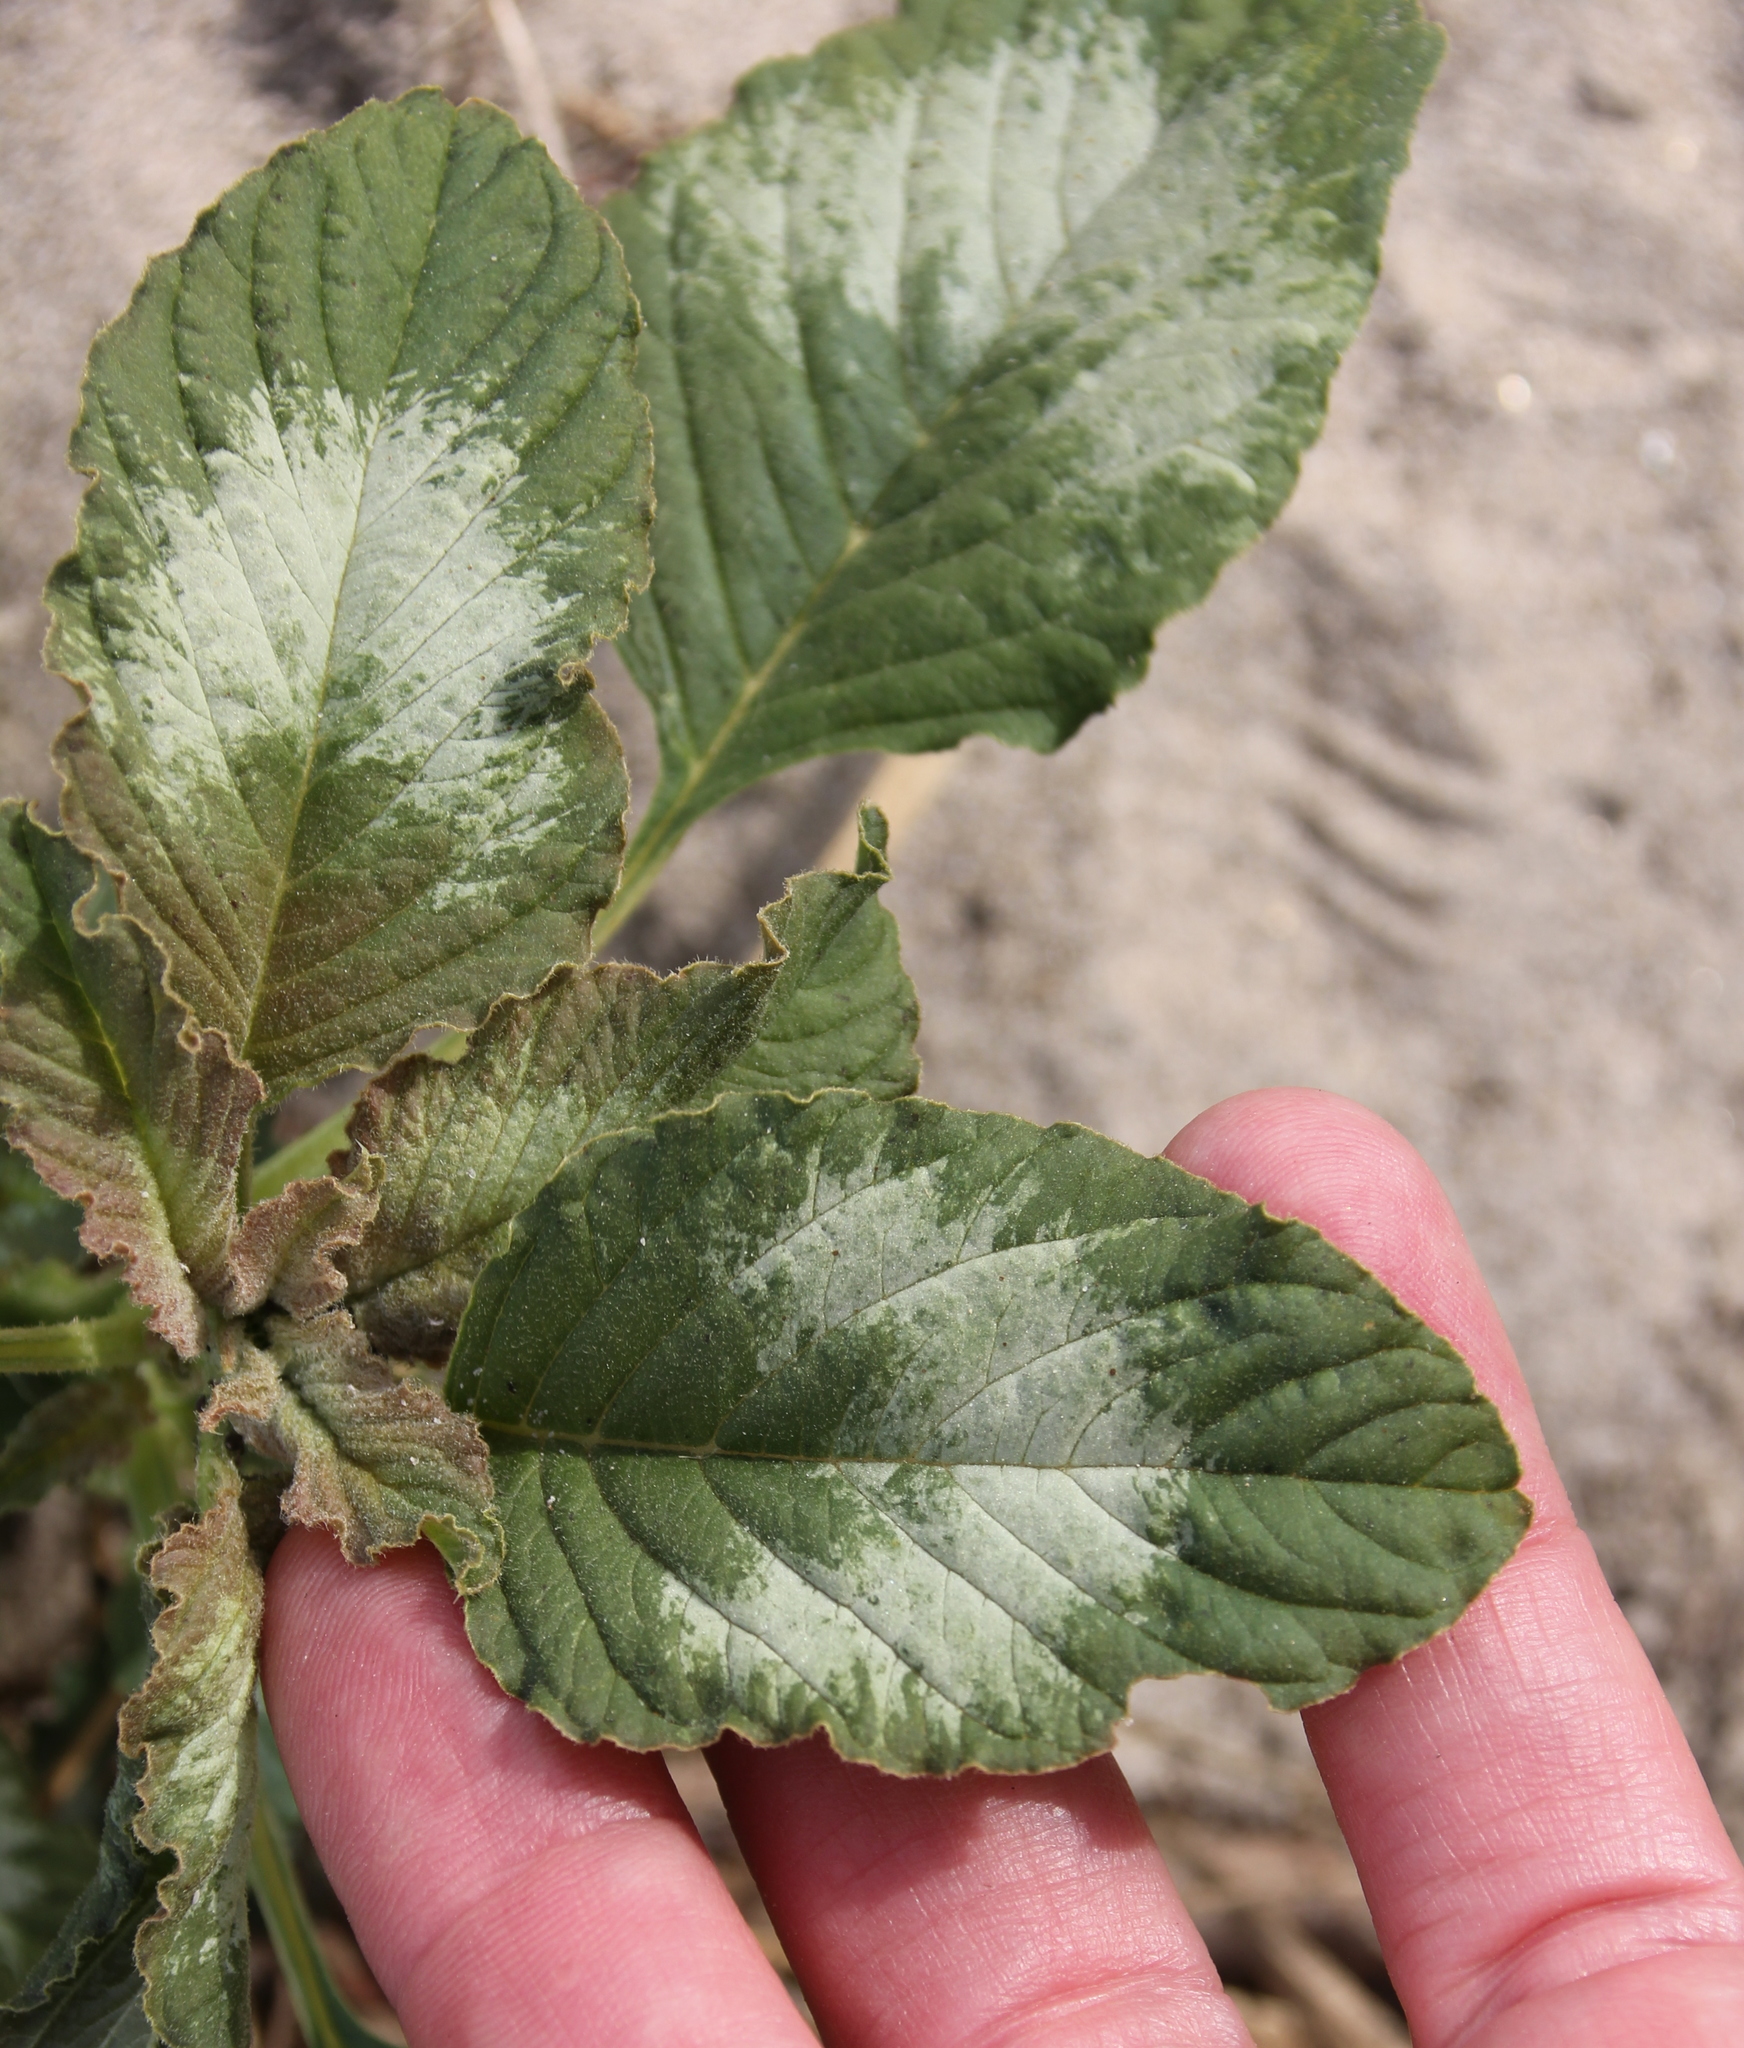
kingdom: Plantae
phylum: Tracheophyta
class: Magnoliopsida
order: Caryophyllales
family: Amaranthaceae
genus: Amaranthus
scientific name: Amaranthus
